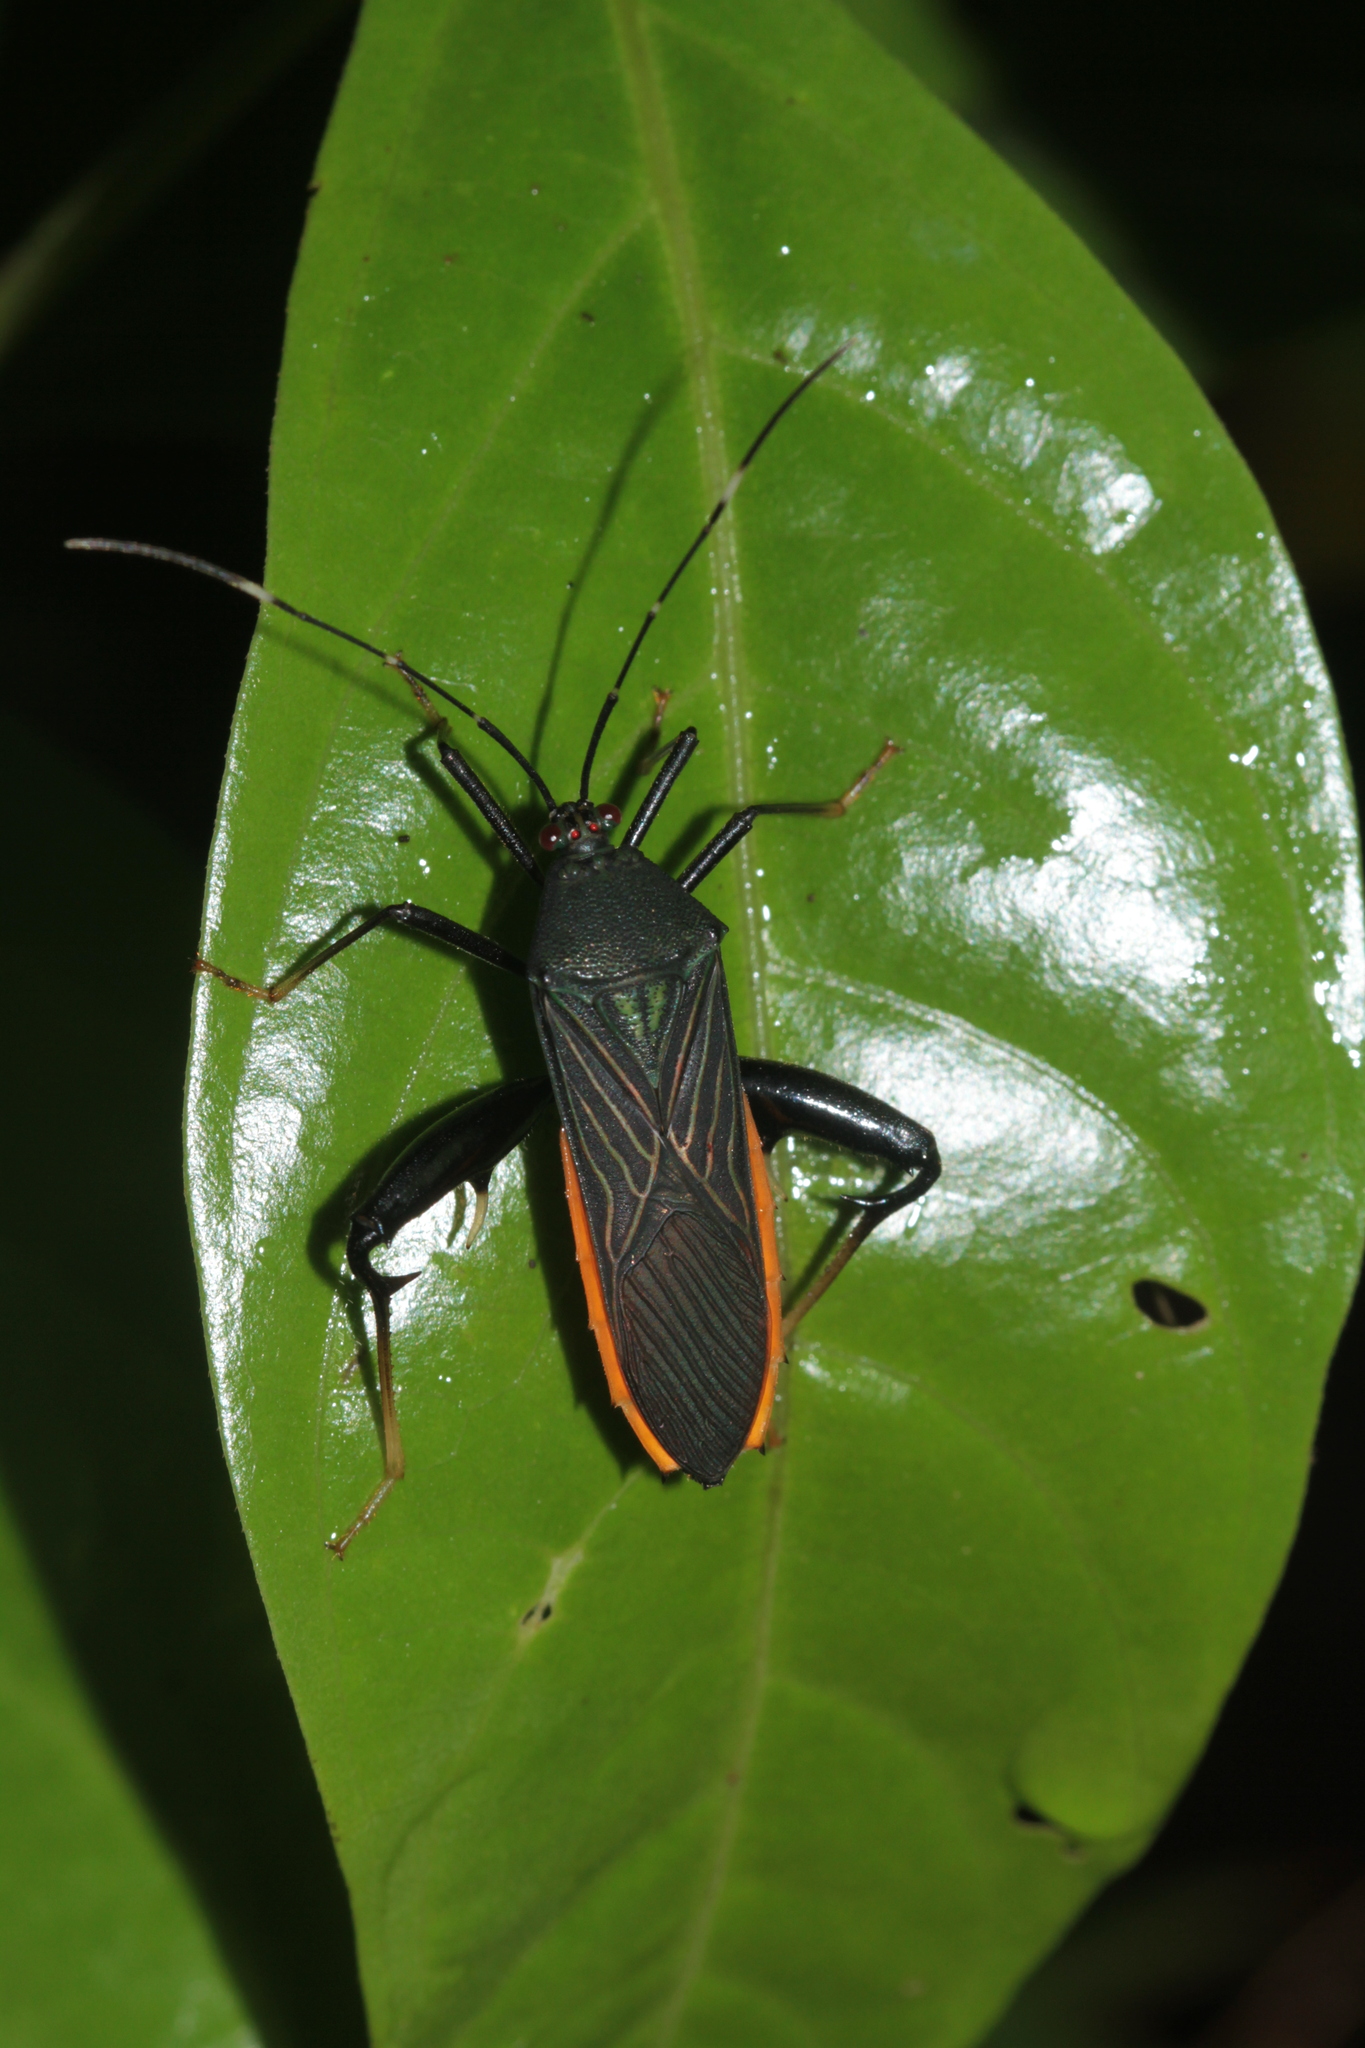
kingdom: Animalia
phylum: Arthropoda
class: Insecta
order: Hemiptera
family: Coreidae
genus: Nematopus
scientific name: Nematopus indus
